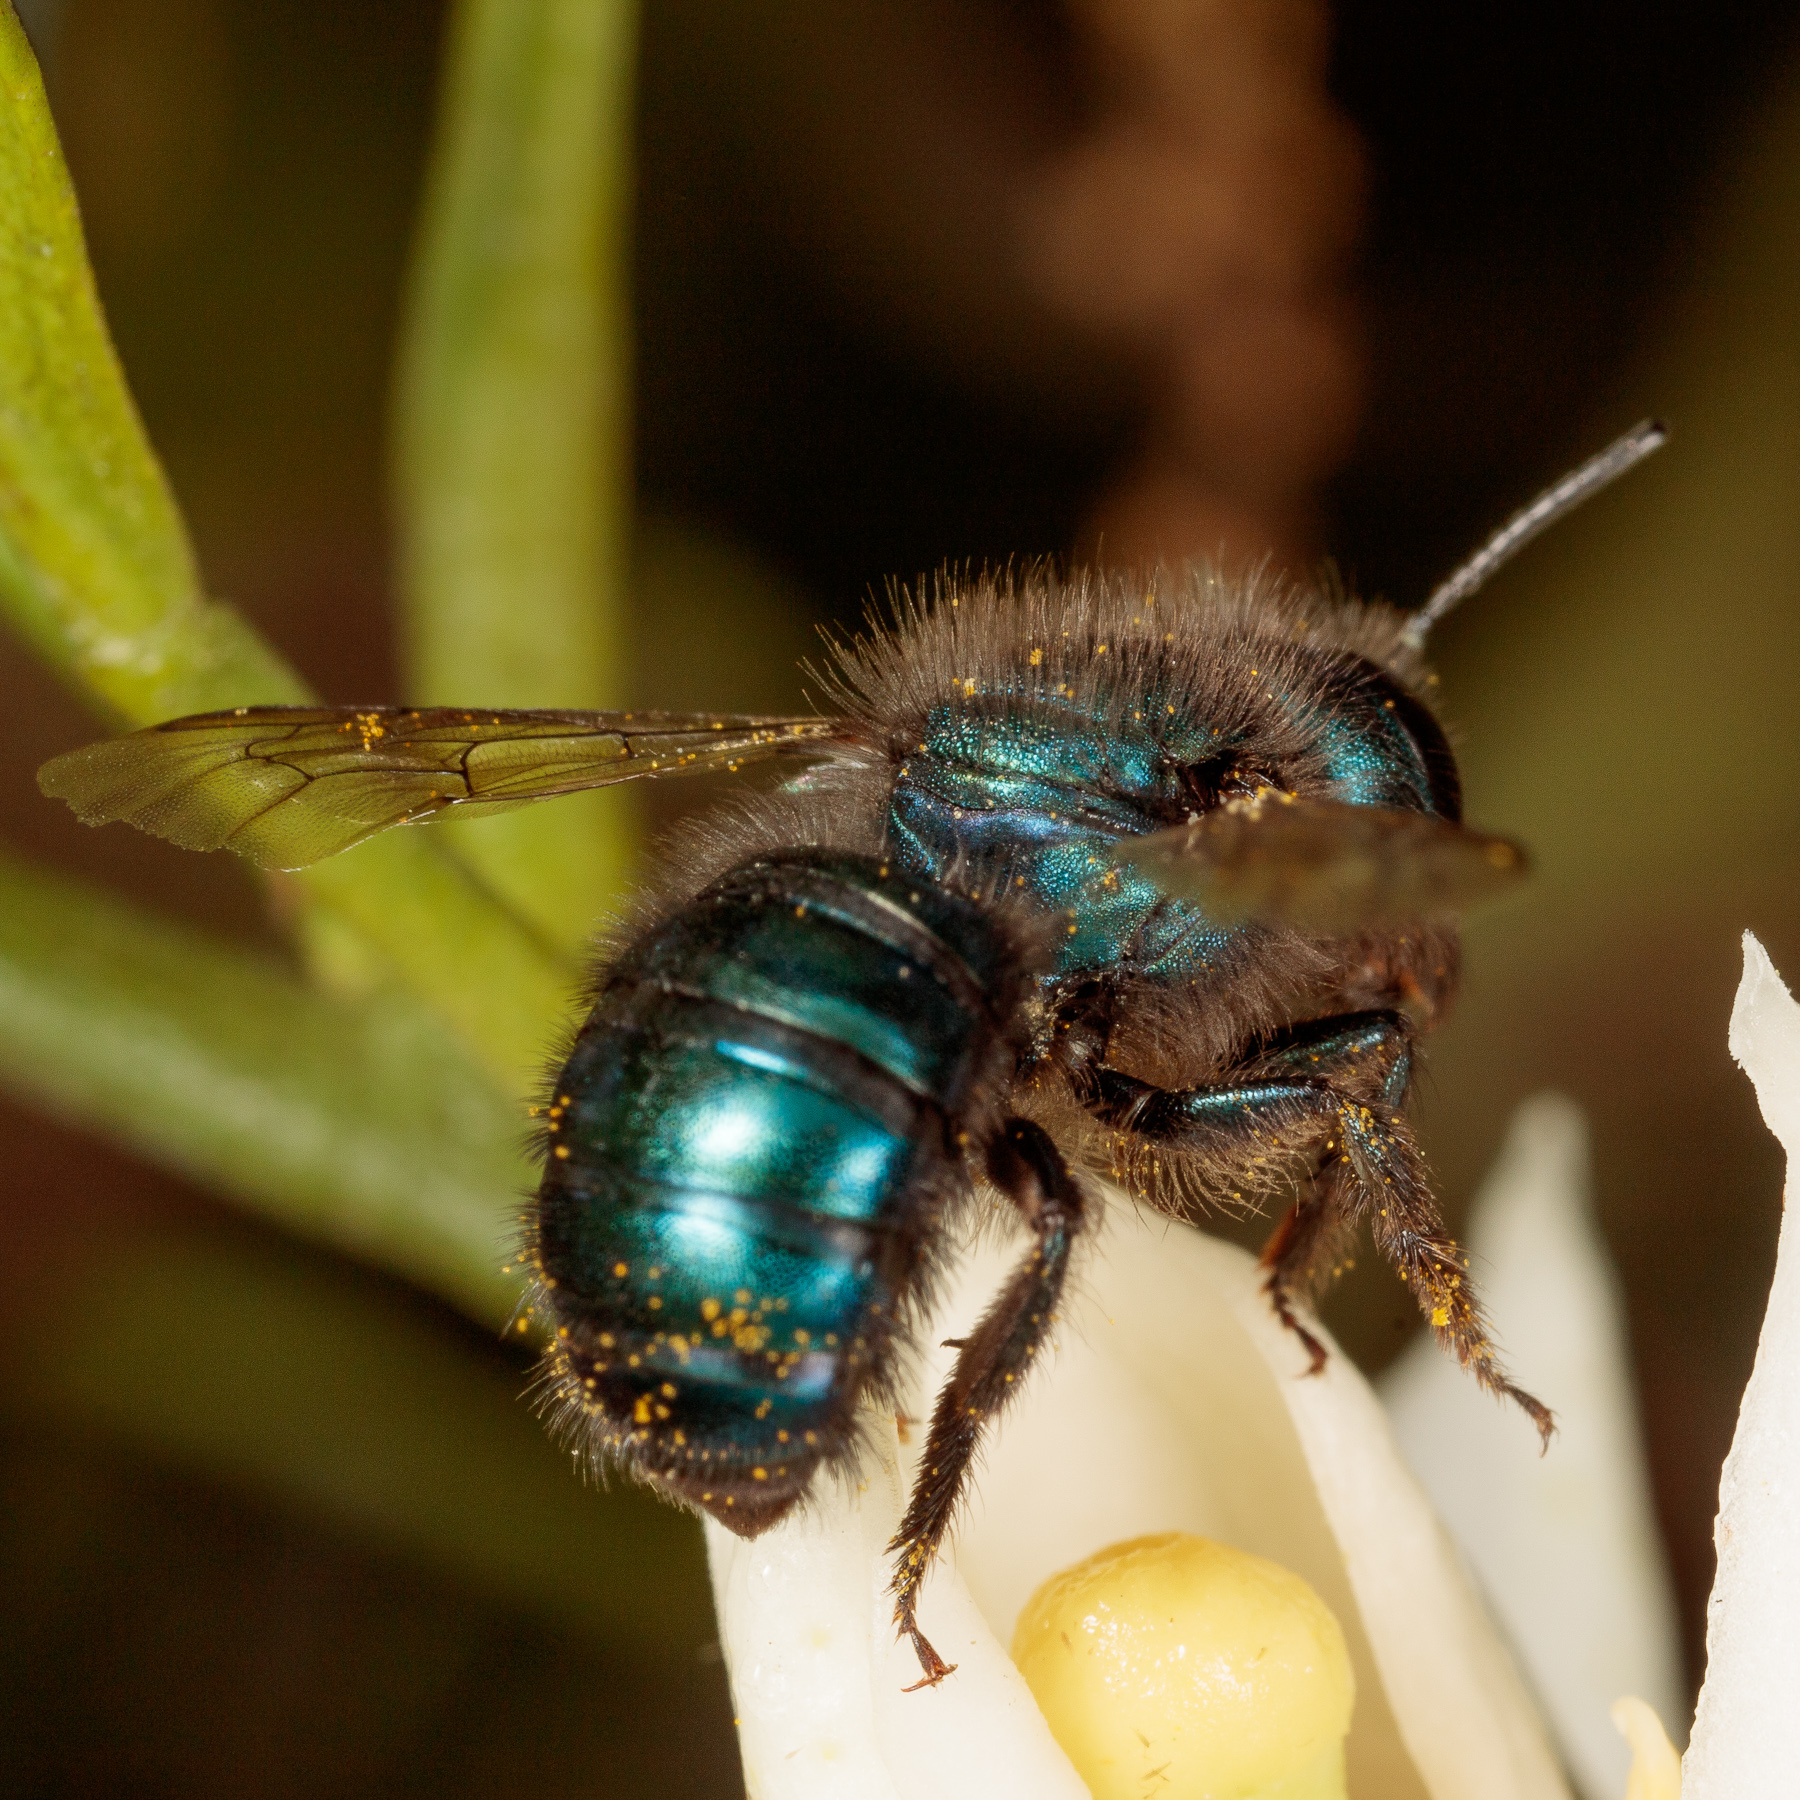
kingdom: Animalia
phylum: Arthropoda
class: Insecta
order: Hymenoptera
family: Megachilidae
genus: Osmia
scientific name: Osmia ribifloris
